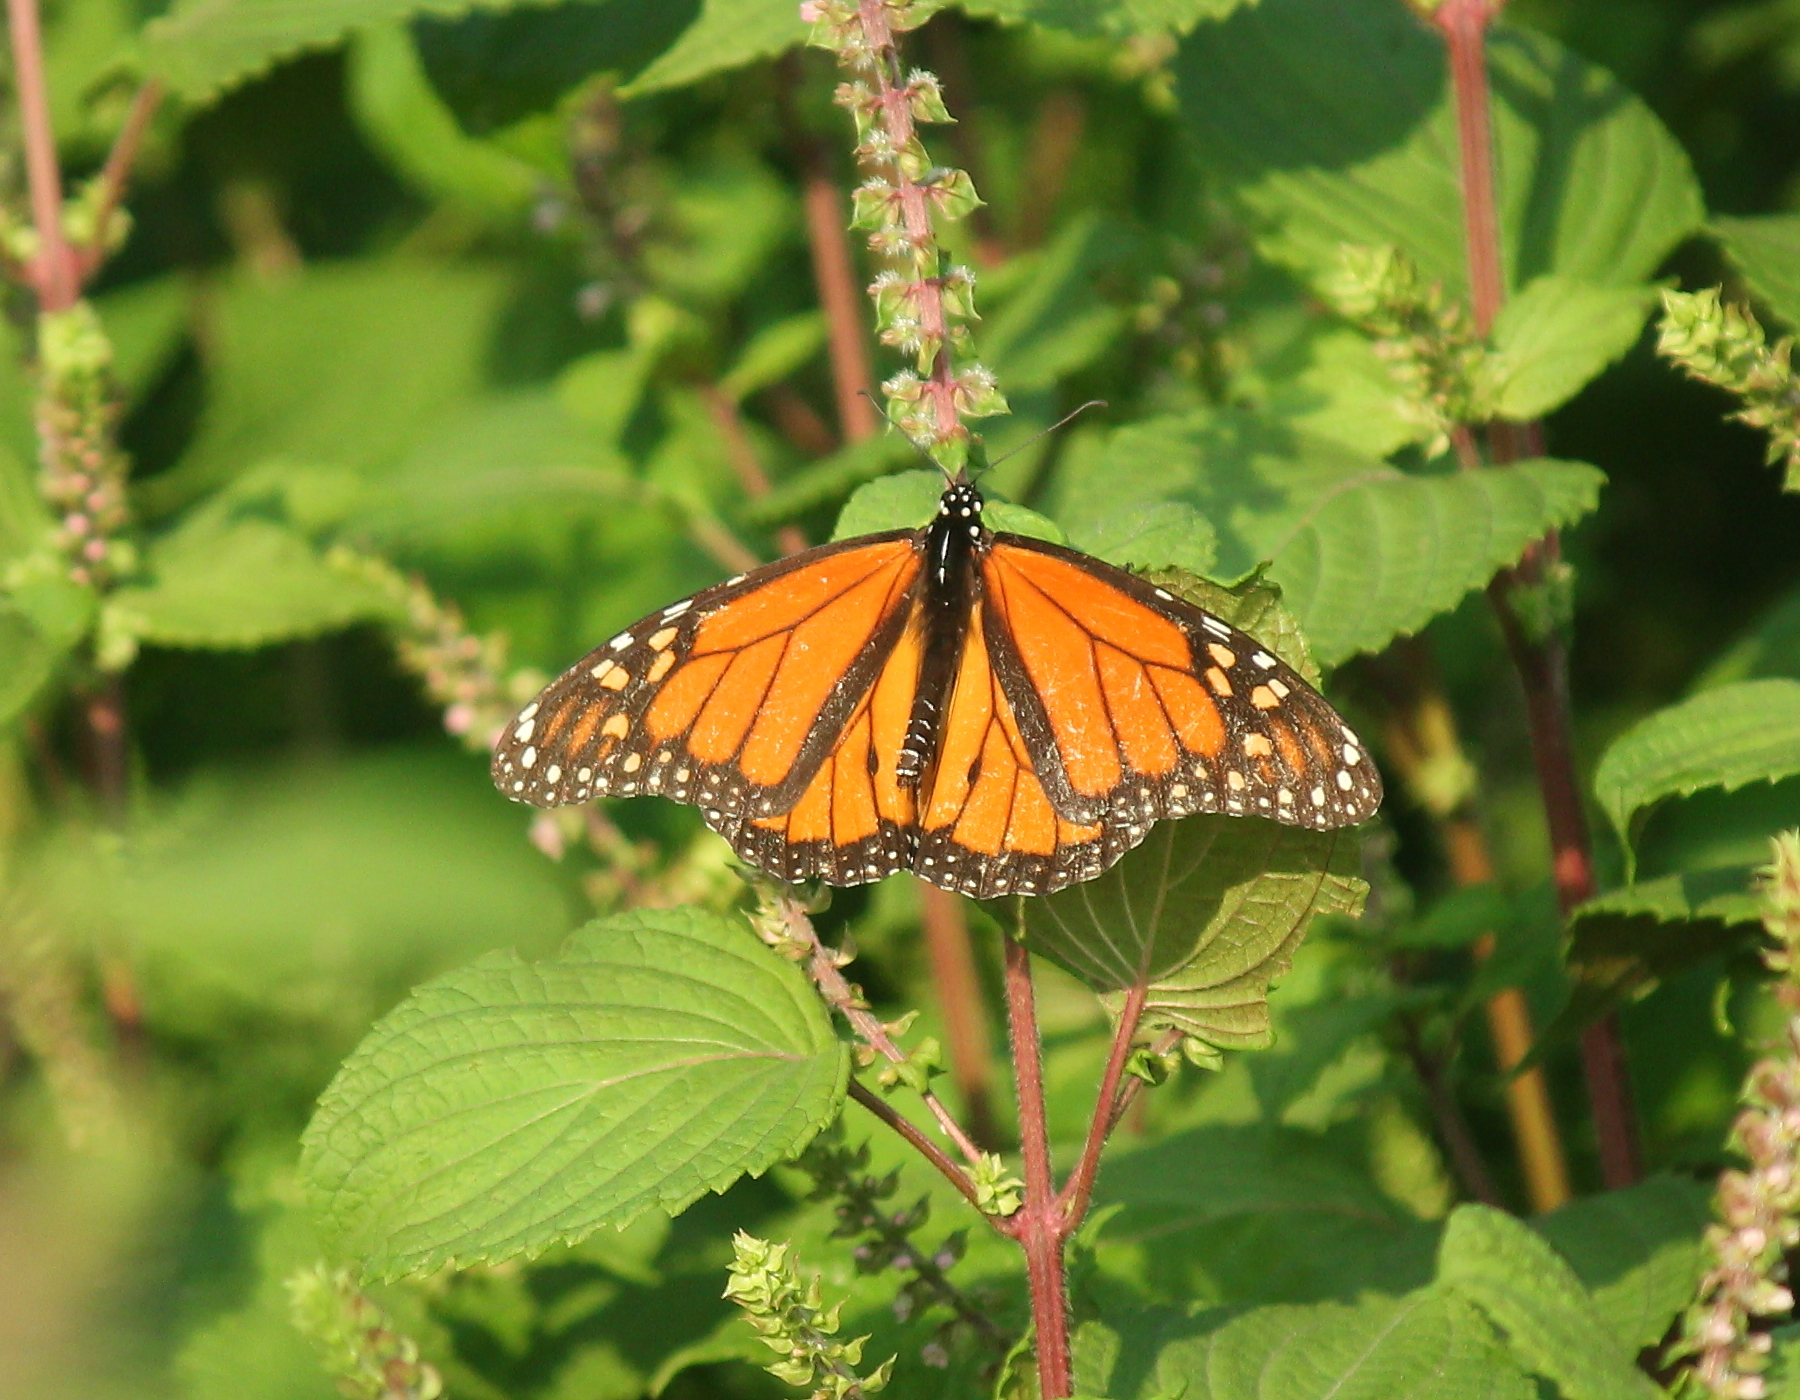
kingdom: Animalia
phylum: Arthropoda
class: Insecta
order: Lepidoptera
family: Nymphalidae
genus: Danaus
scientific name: Danaus plexippus
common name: Monarch
